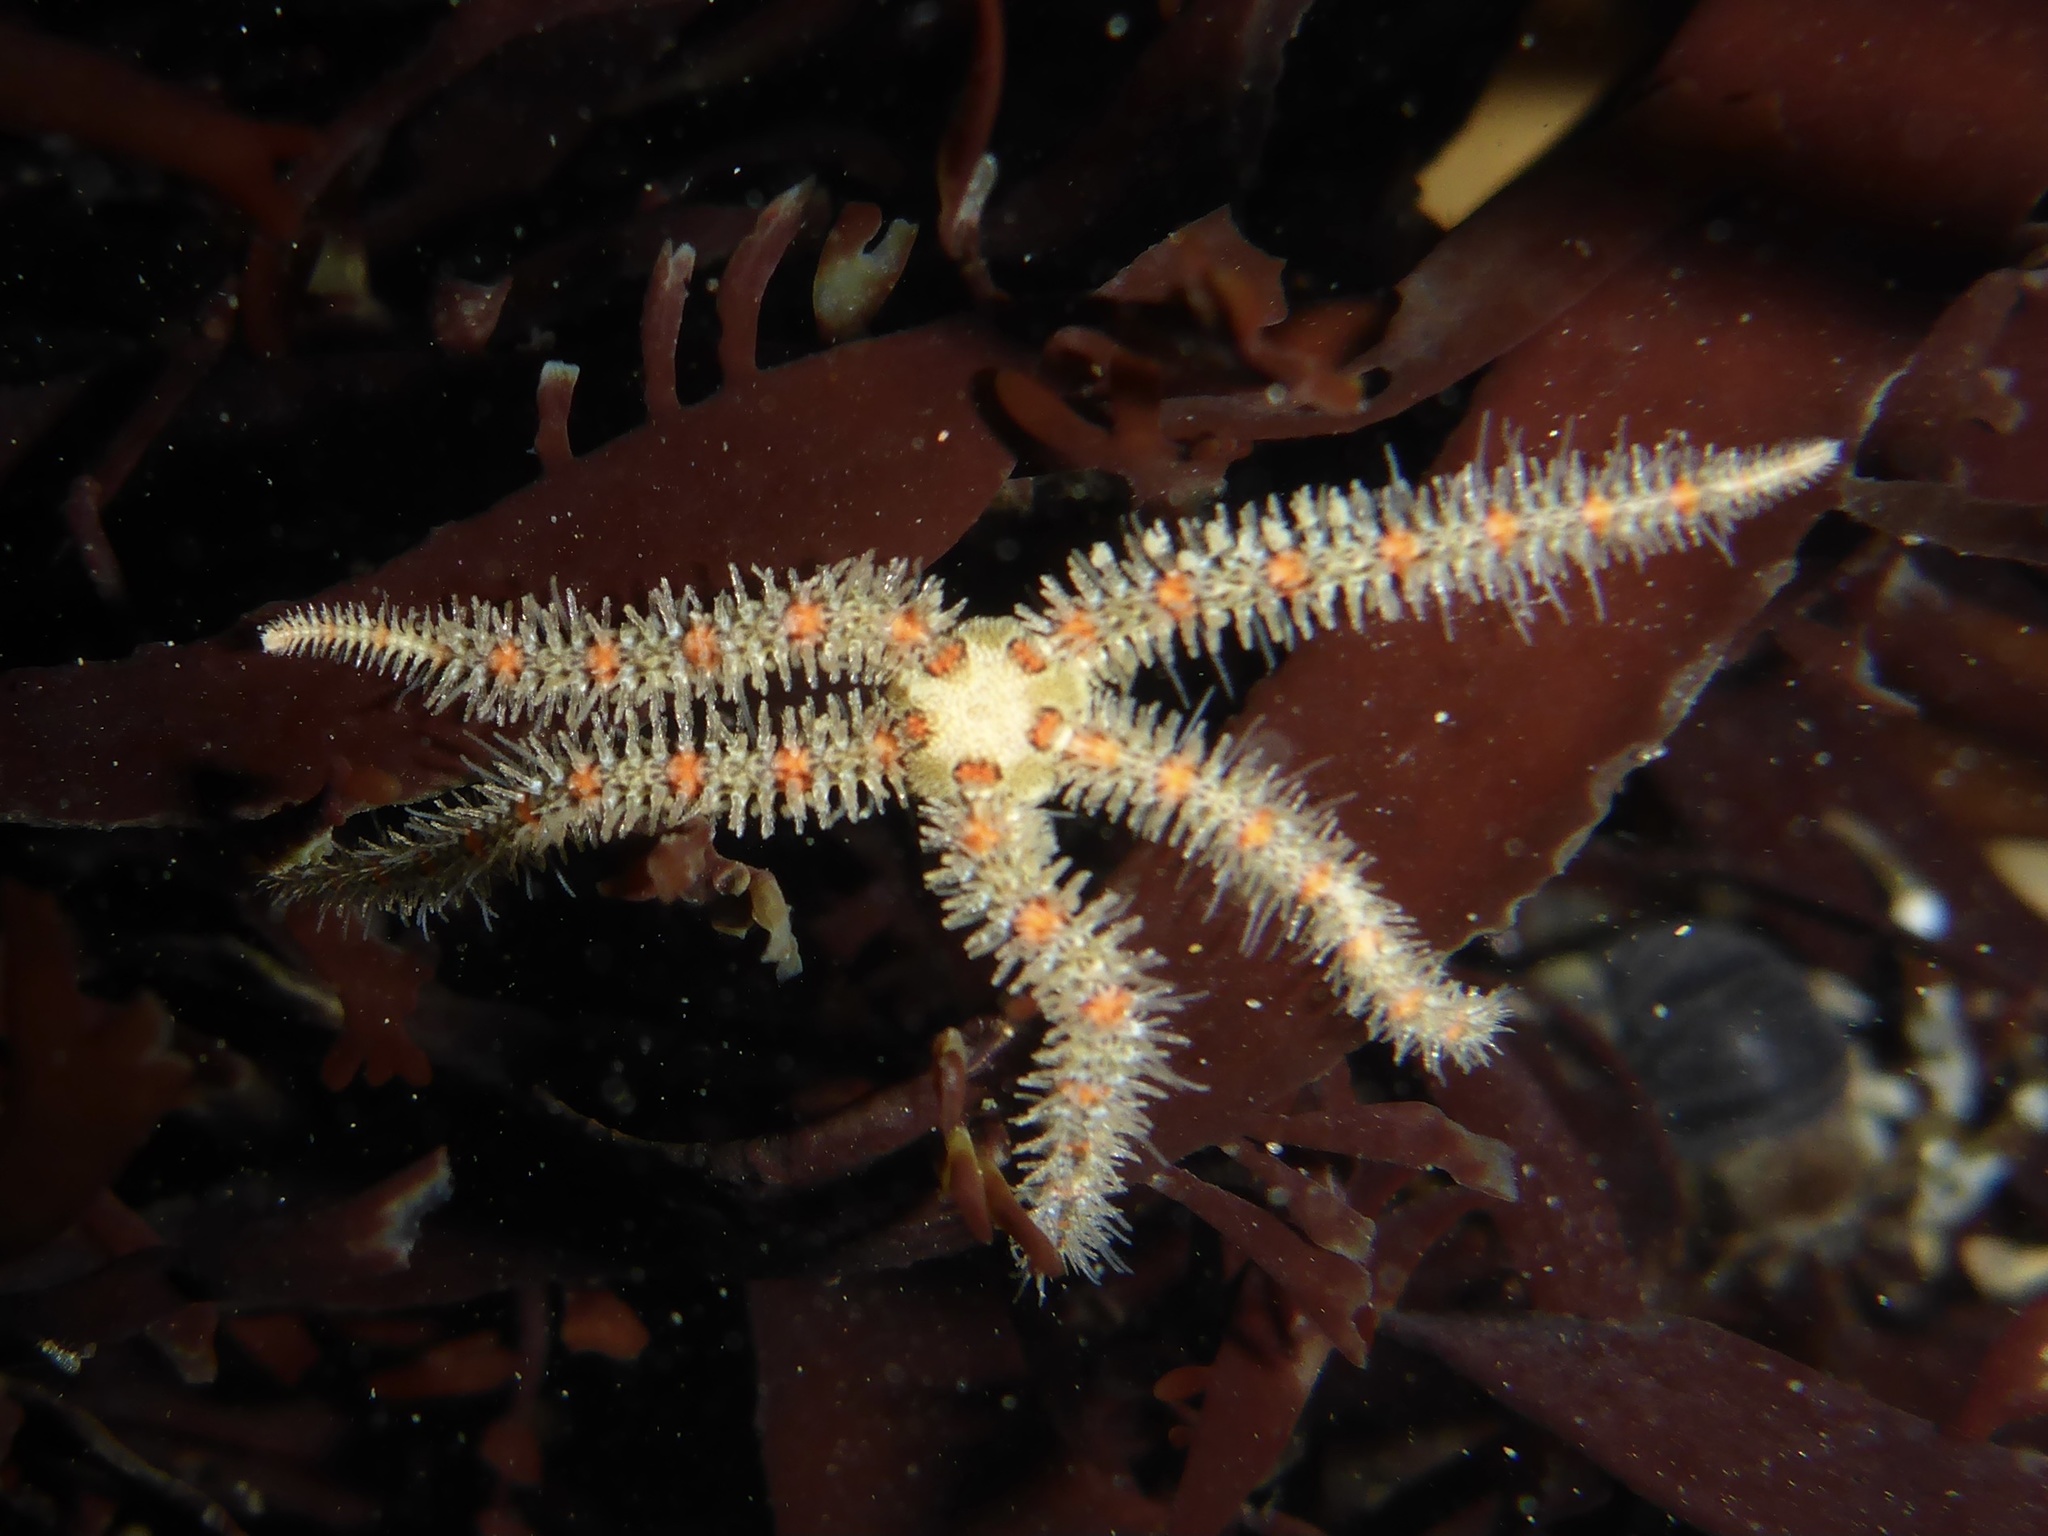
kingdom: Animalia
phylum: Echinodermata
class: Ophiuroidea
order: Amphilepidida
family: Ophiotrichidae
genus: Ophiothrix
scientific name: Ophiothrix spiculata
